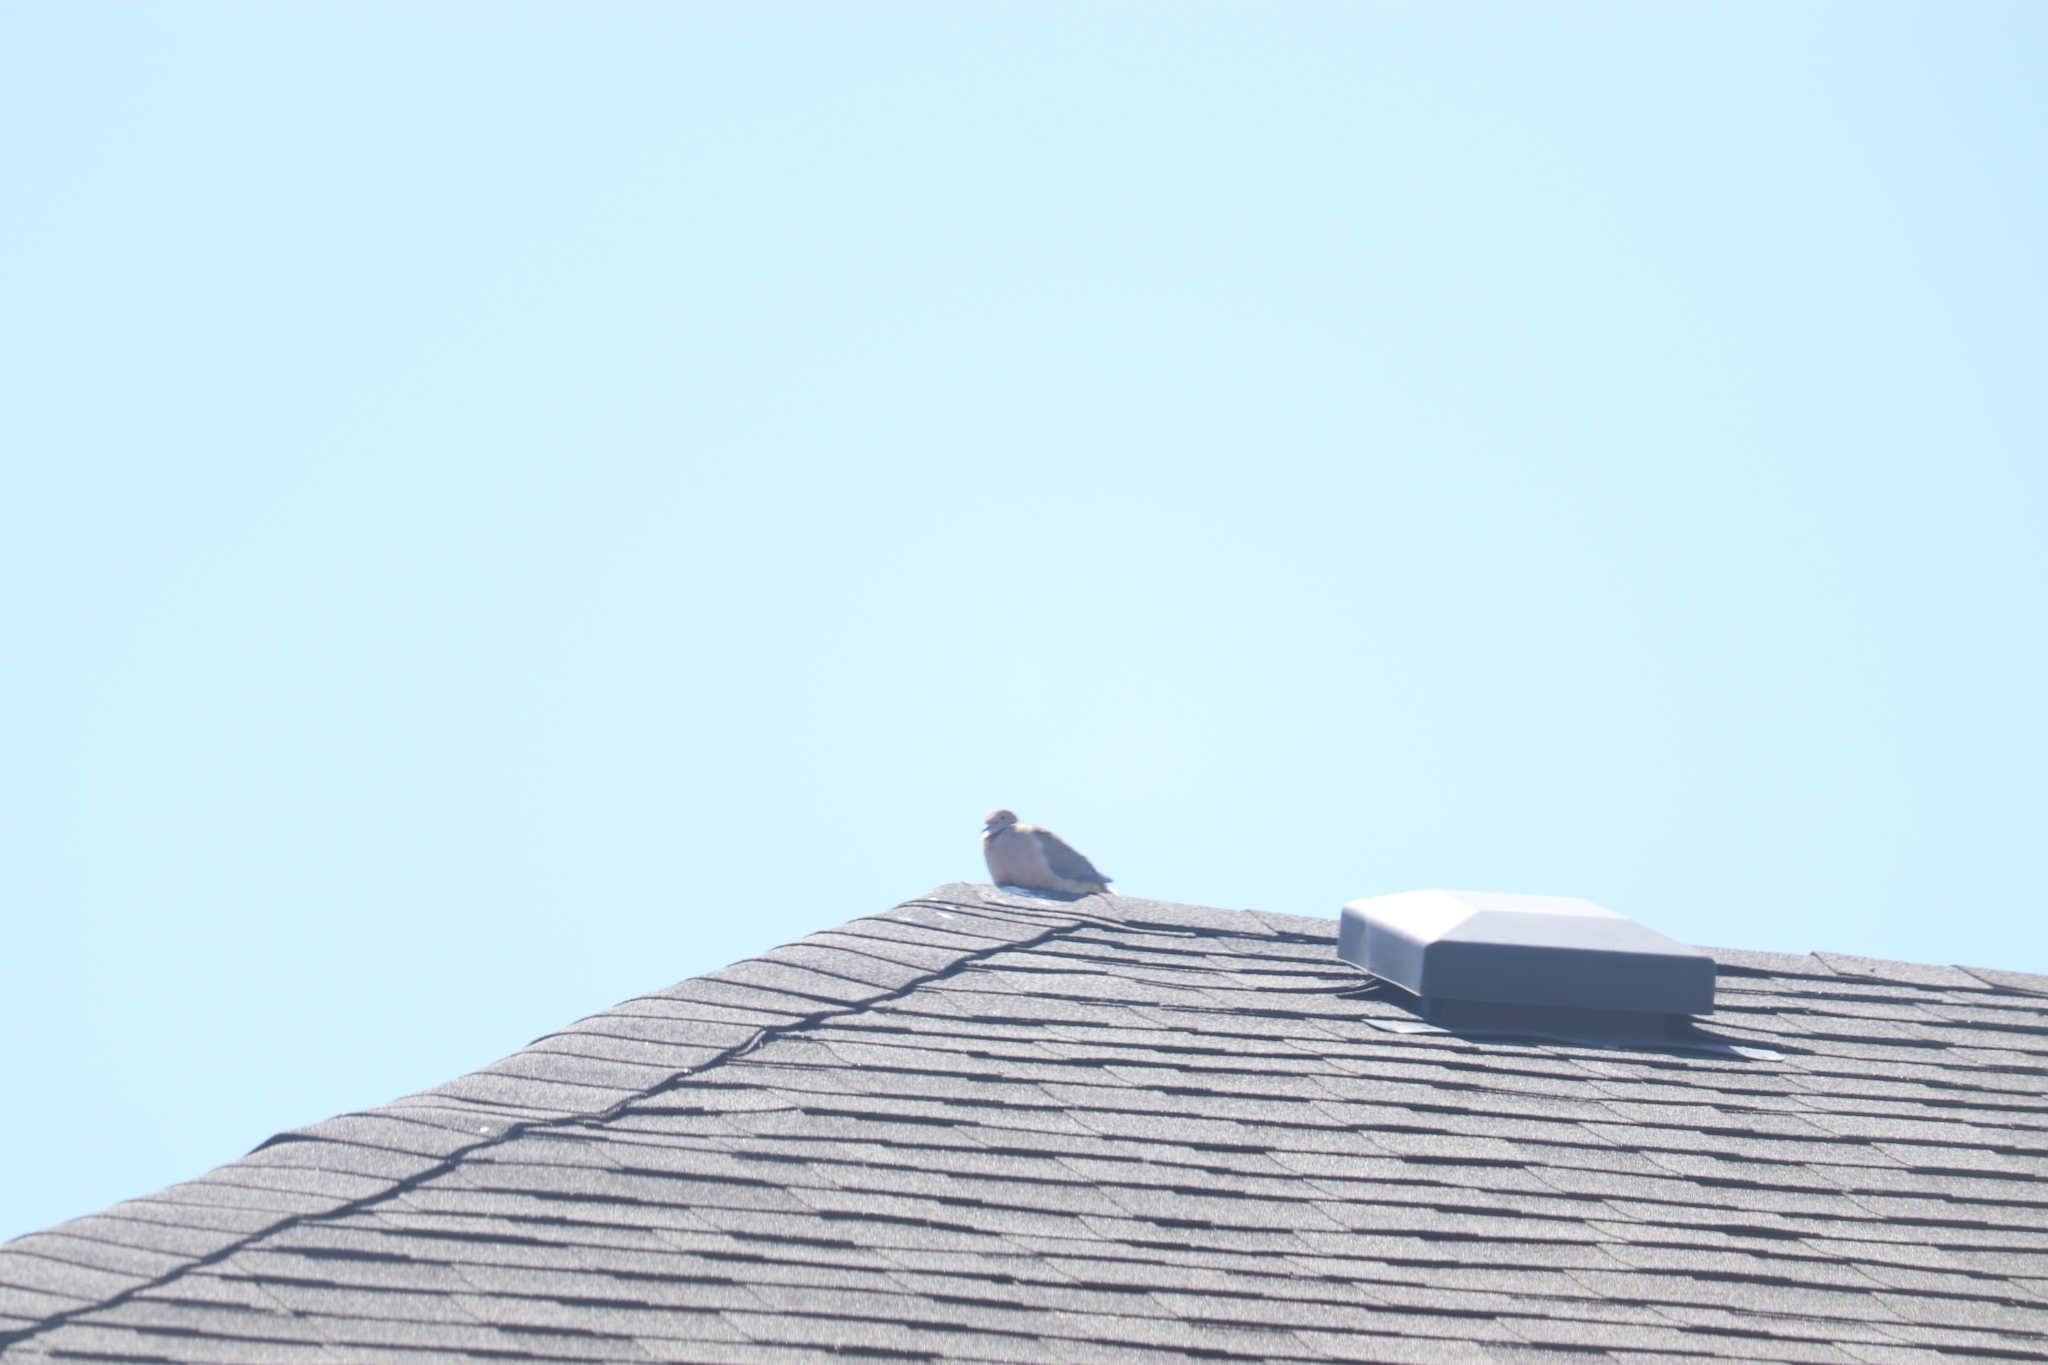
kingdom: Animalia
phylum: Chordata
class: Aves
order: Columbiformes
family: Columbidae
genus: Zenaida
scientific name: Zenaida macroura
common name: Mourning dove
